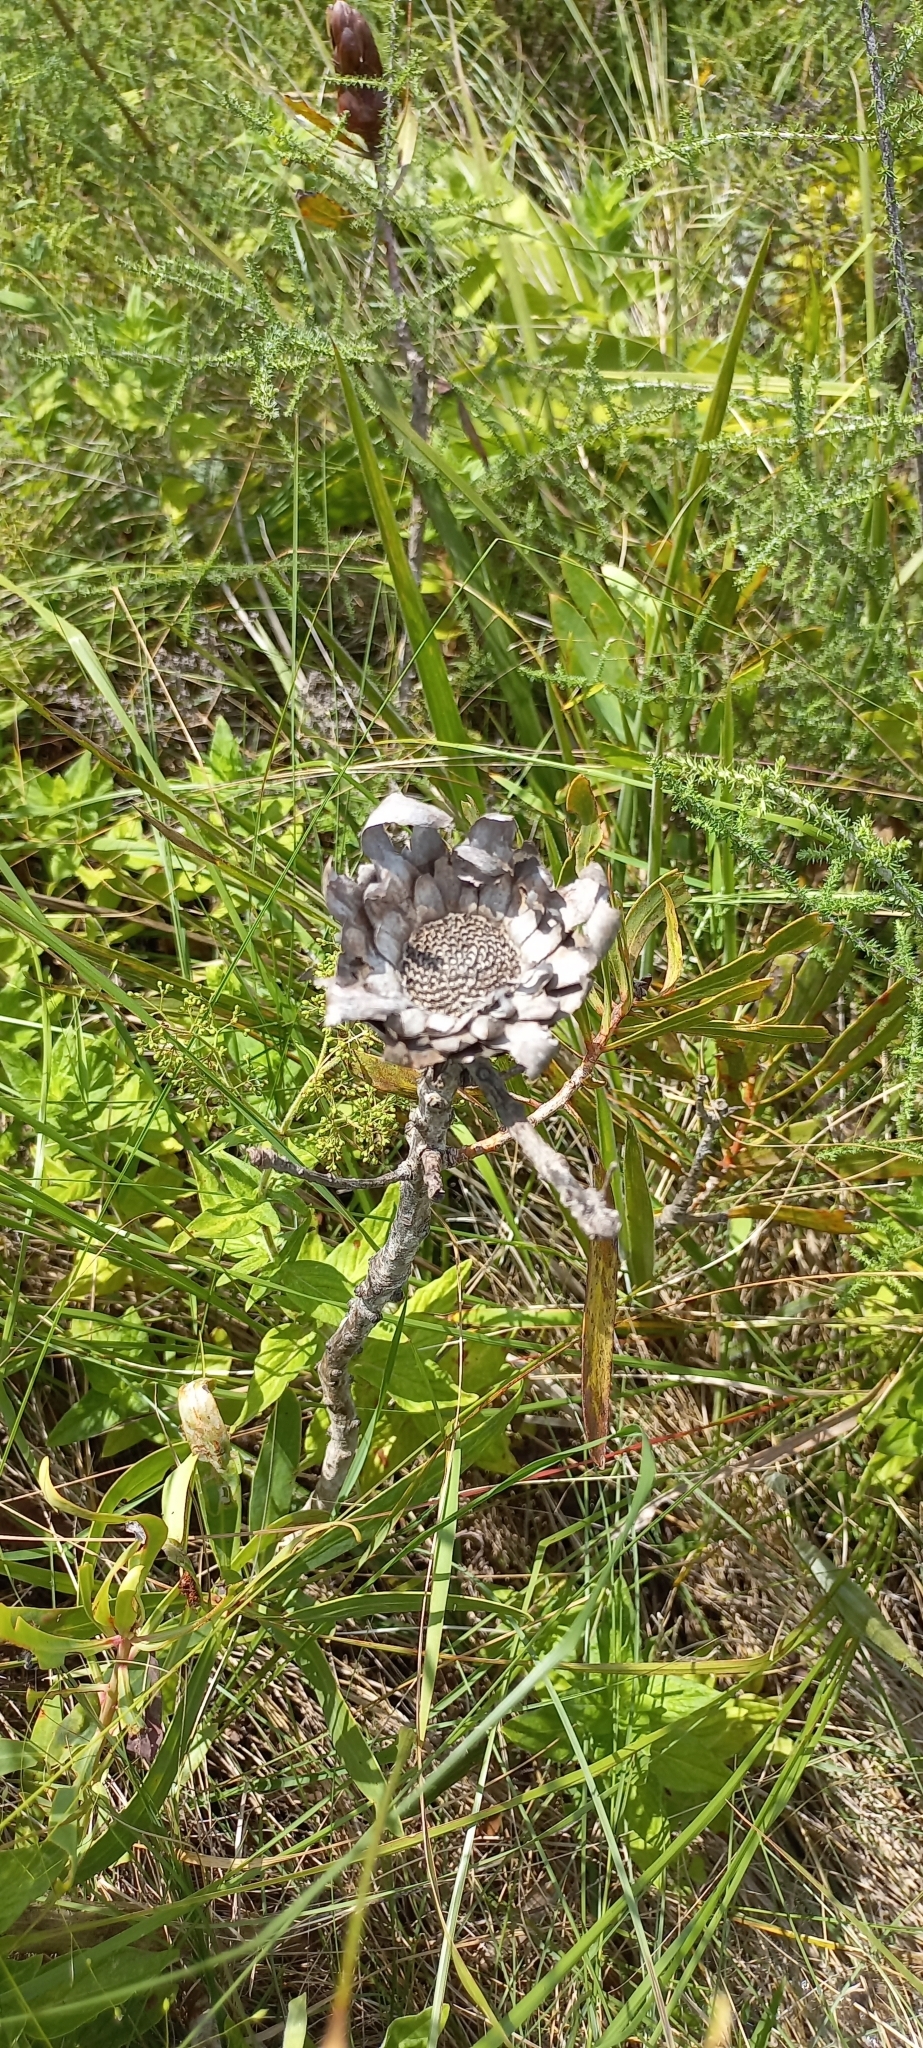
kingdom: Plantae
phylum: Tracheophyta
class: Magnoliopsida
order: Proteales
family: Proteaceae
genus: Protea
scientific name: Protea caffra
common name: Common sugarbush
